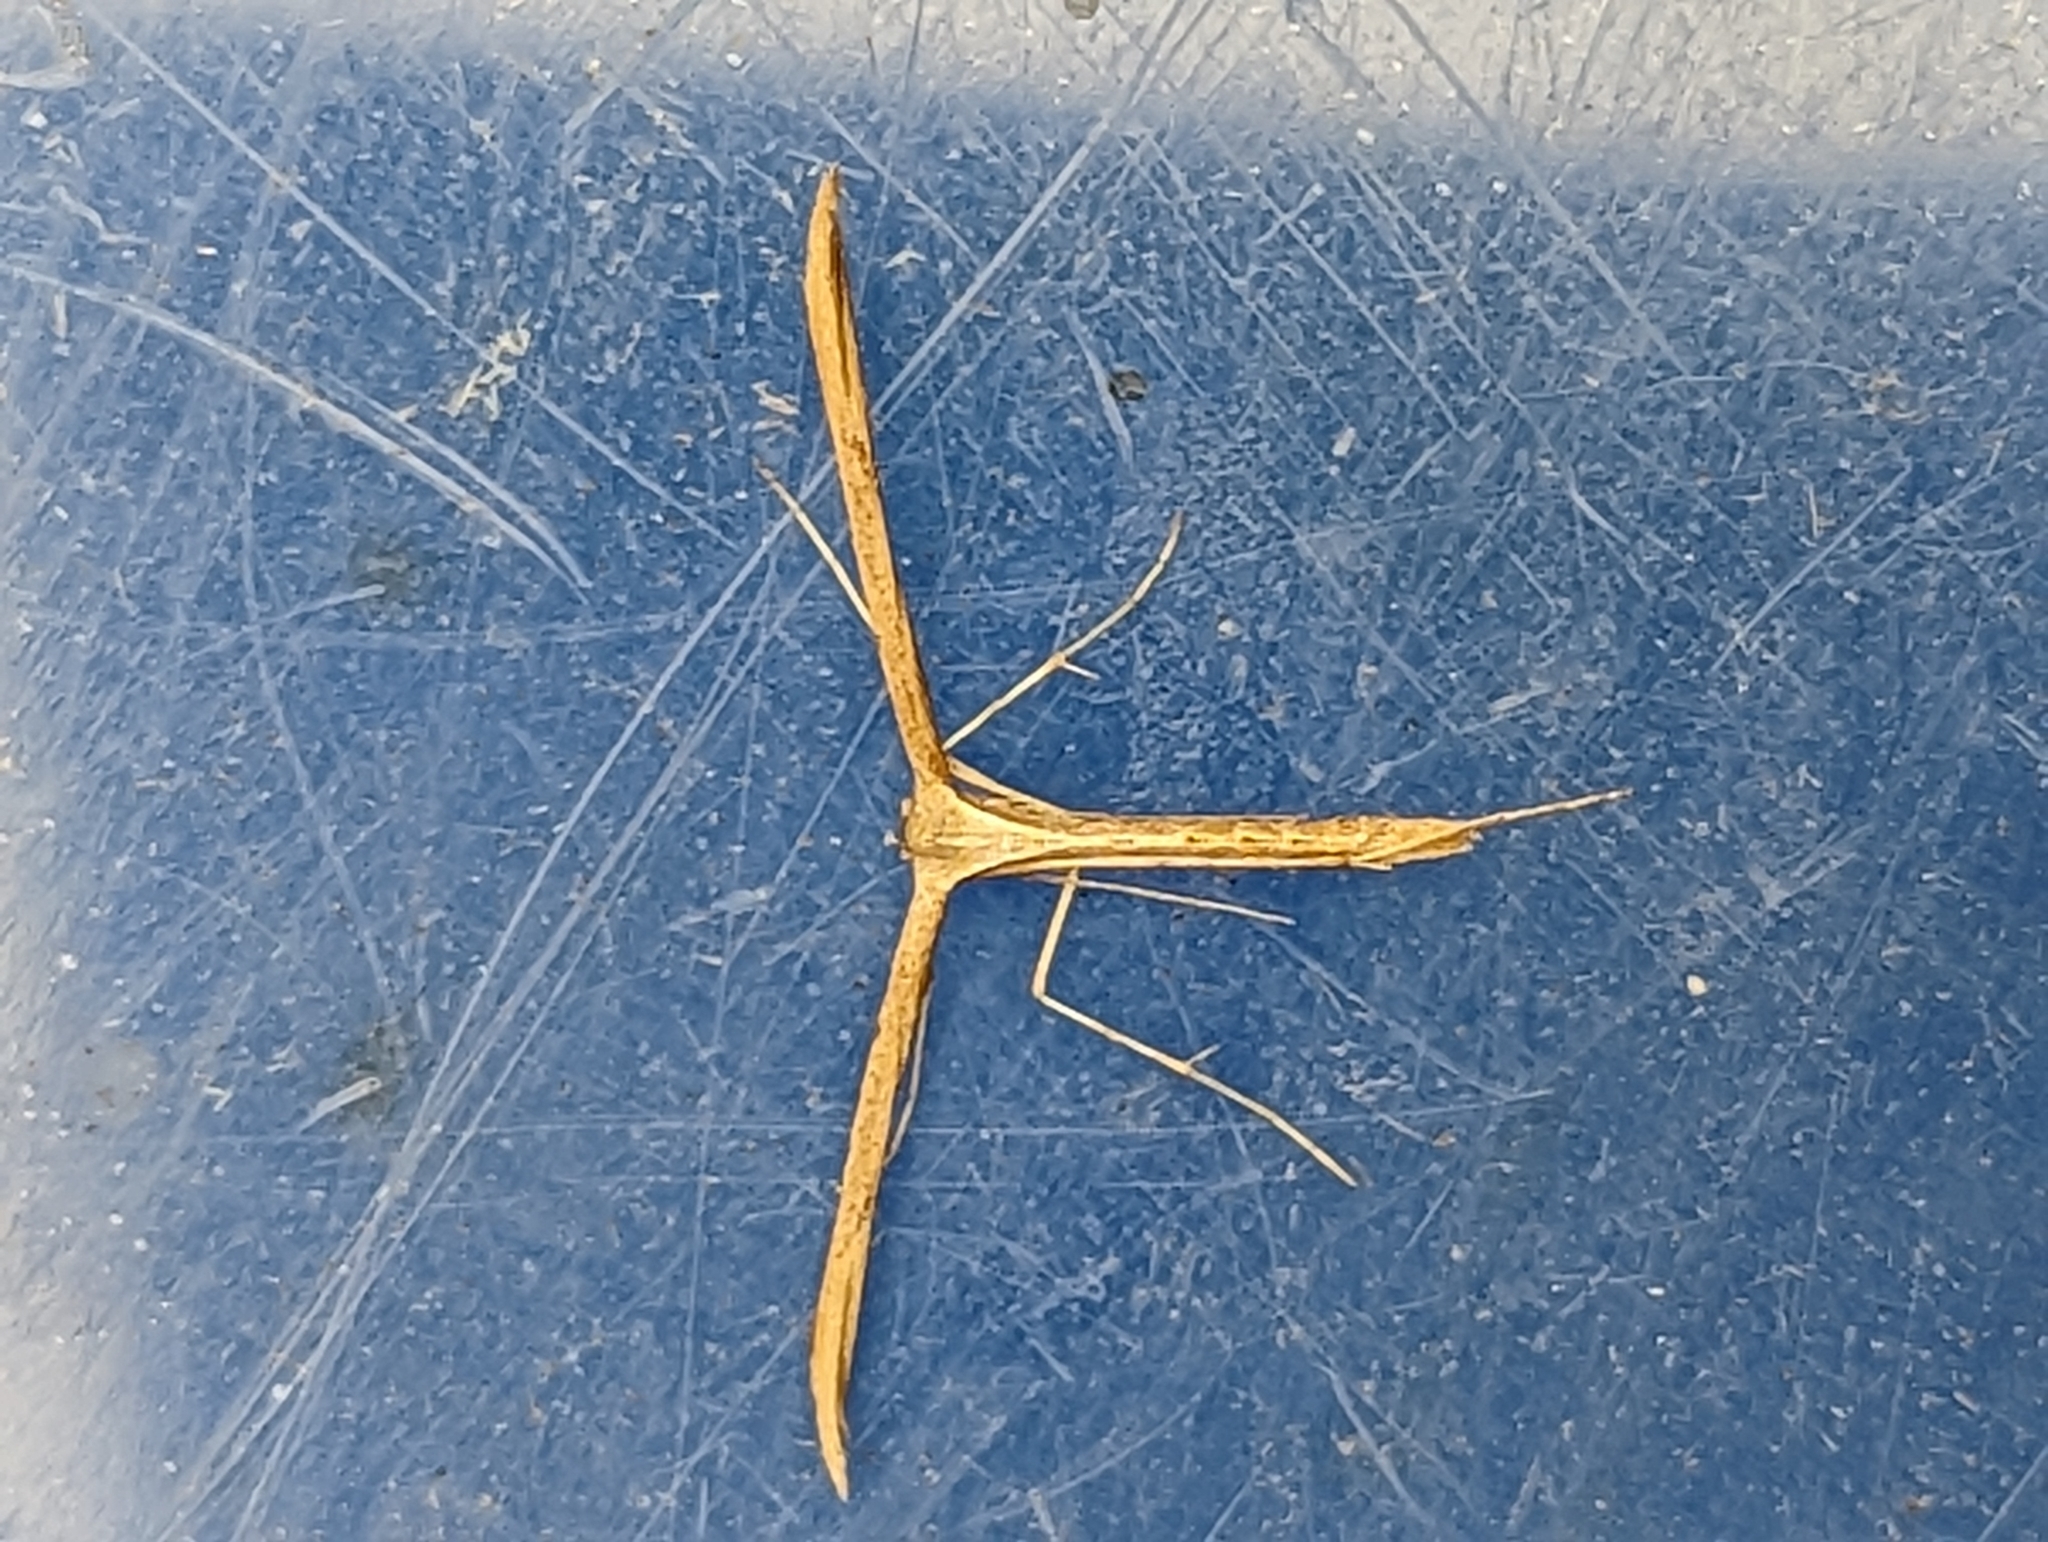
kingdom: Animalia
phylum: Arthropoda
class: Insecta
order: Lepidoptera
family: Pterophoridae
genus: Emmelina
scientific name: Emmelina monodactyla
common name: Common plume
